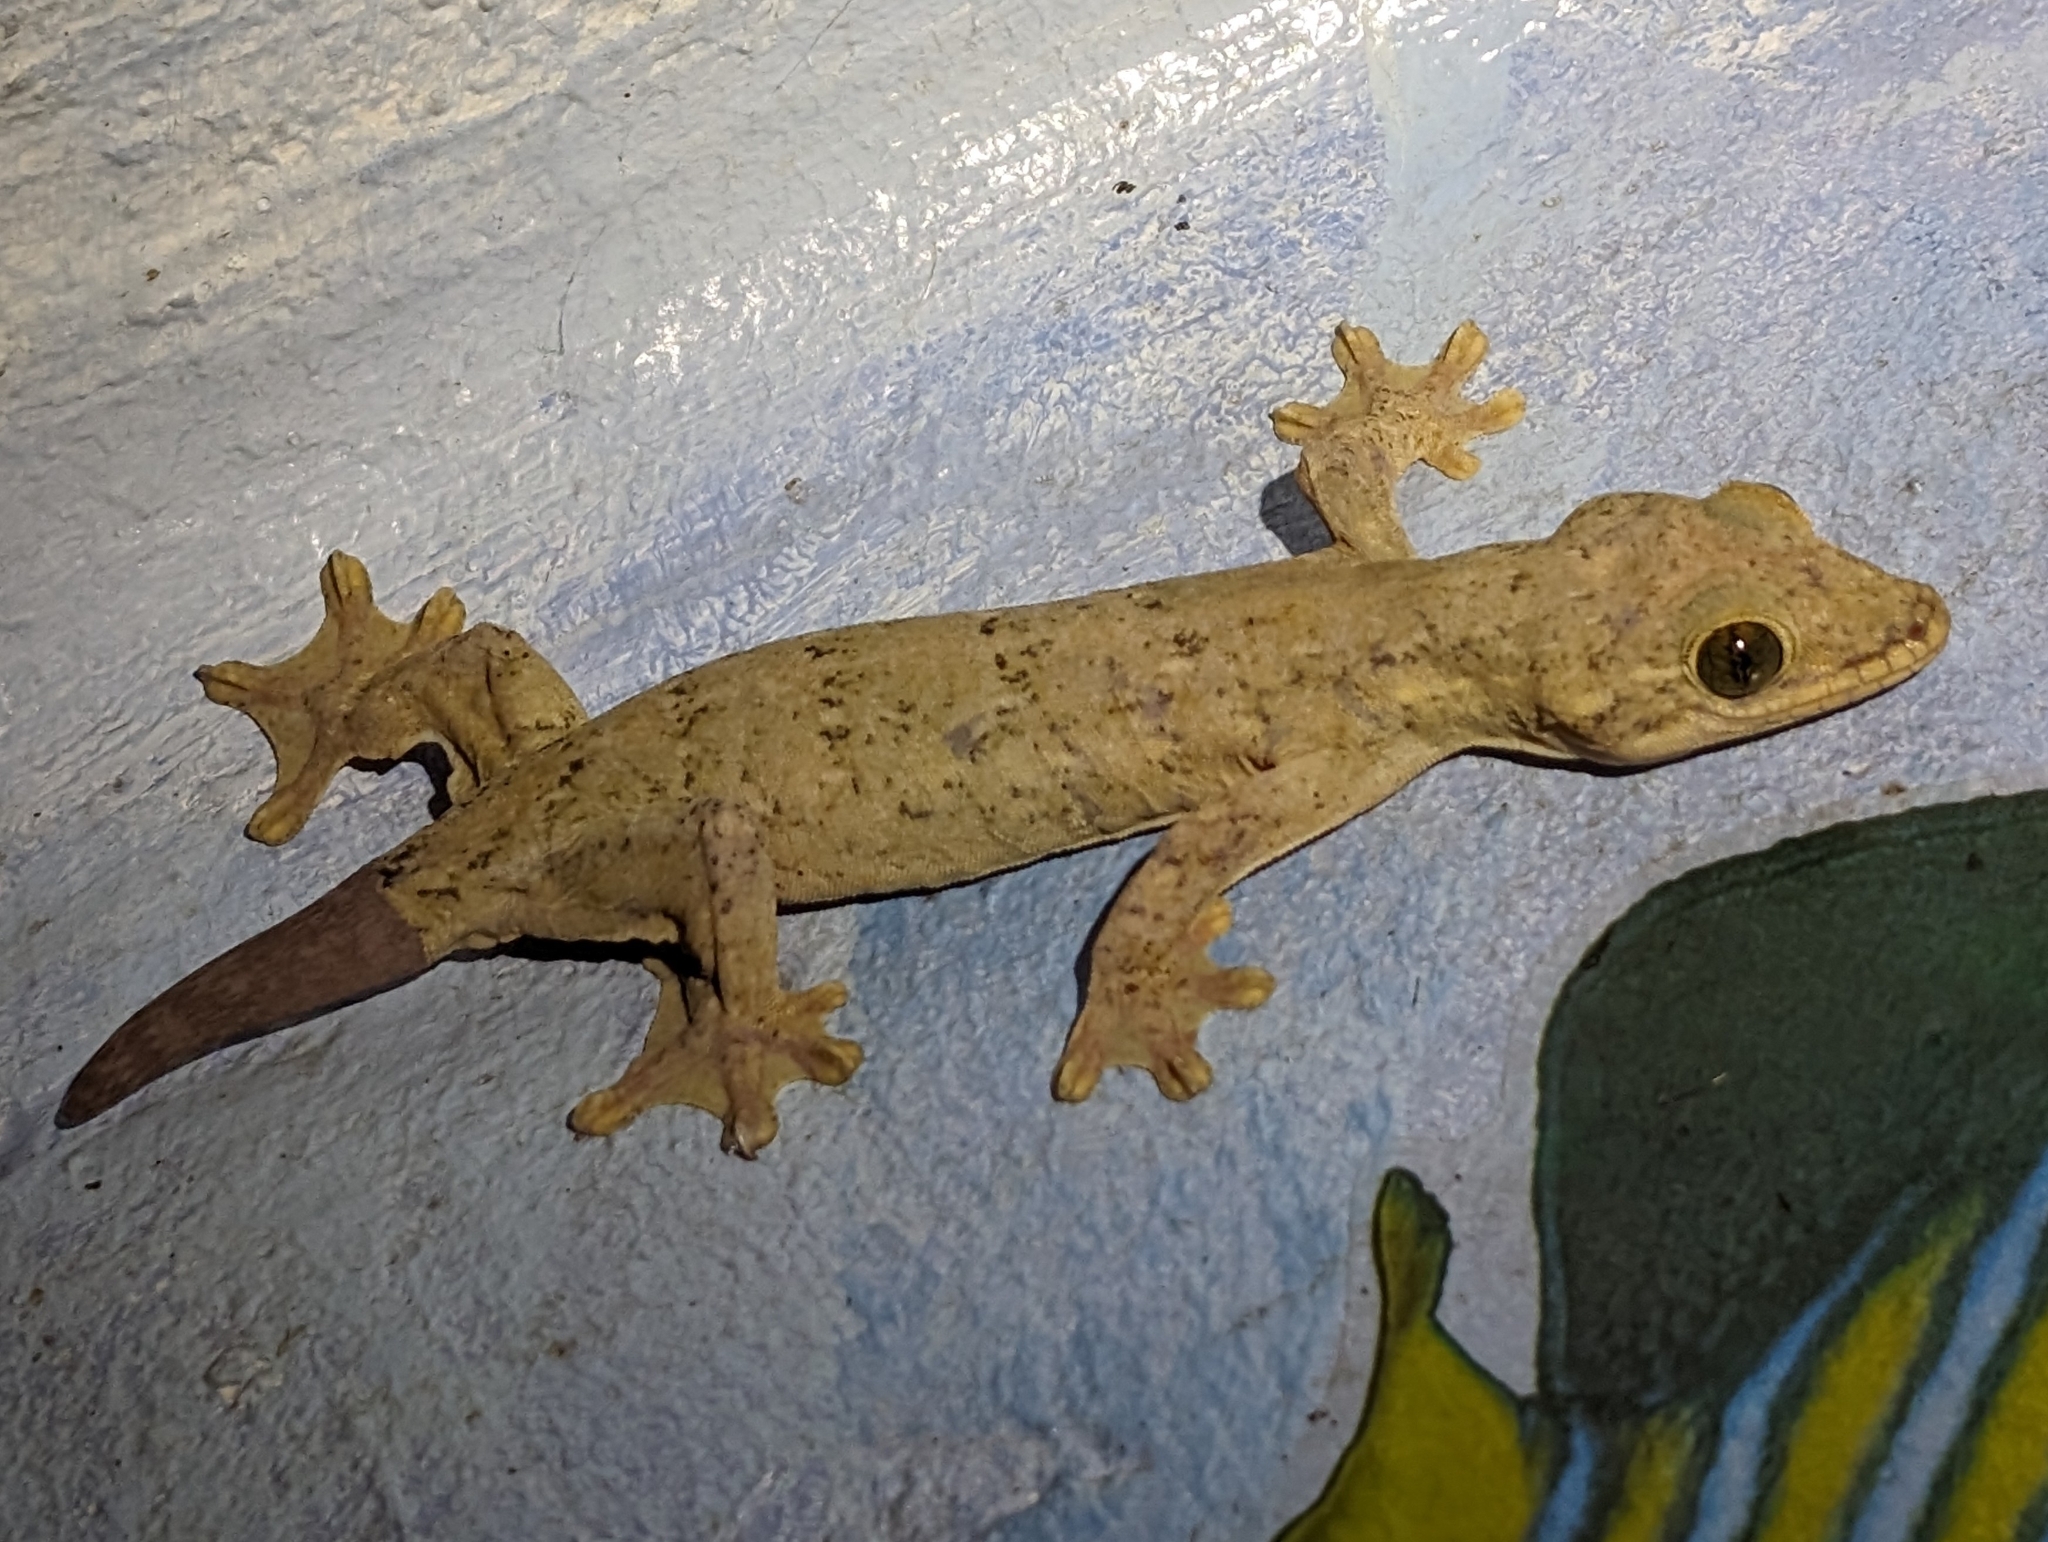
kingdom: Animalia
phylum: Chordata
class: Squamata
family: Phyllodactylidae
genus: Thecadactylus
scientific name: Thecadactylus rapicauda
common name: Turnip-tailed gecko
